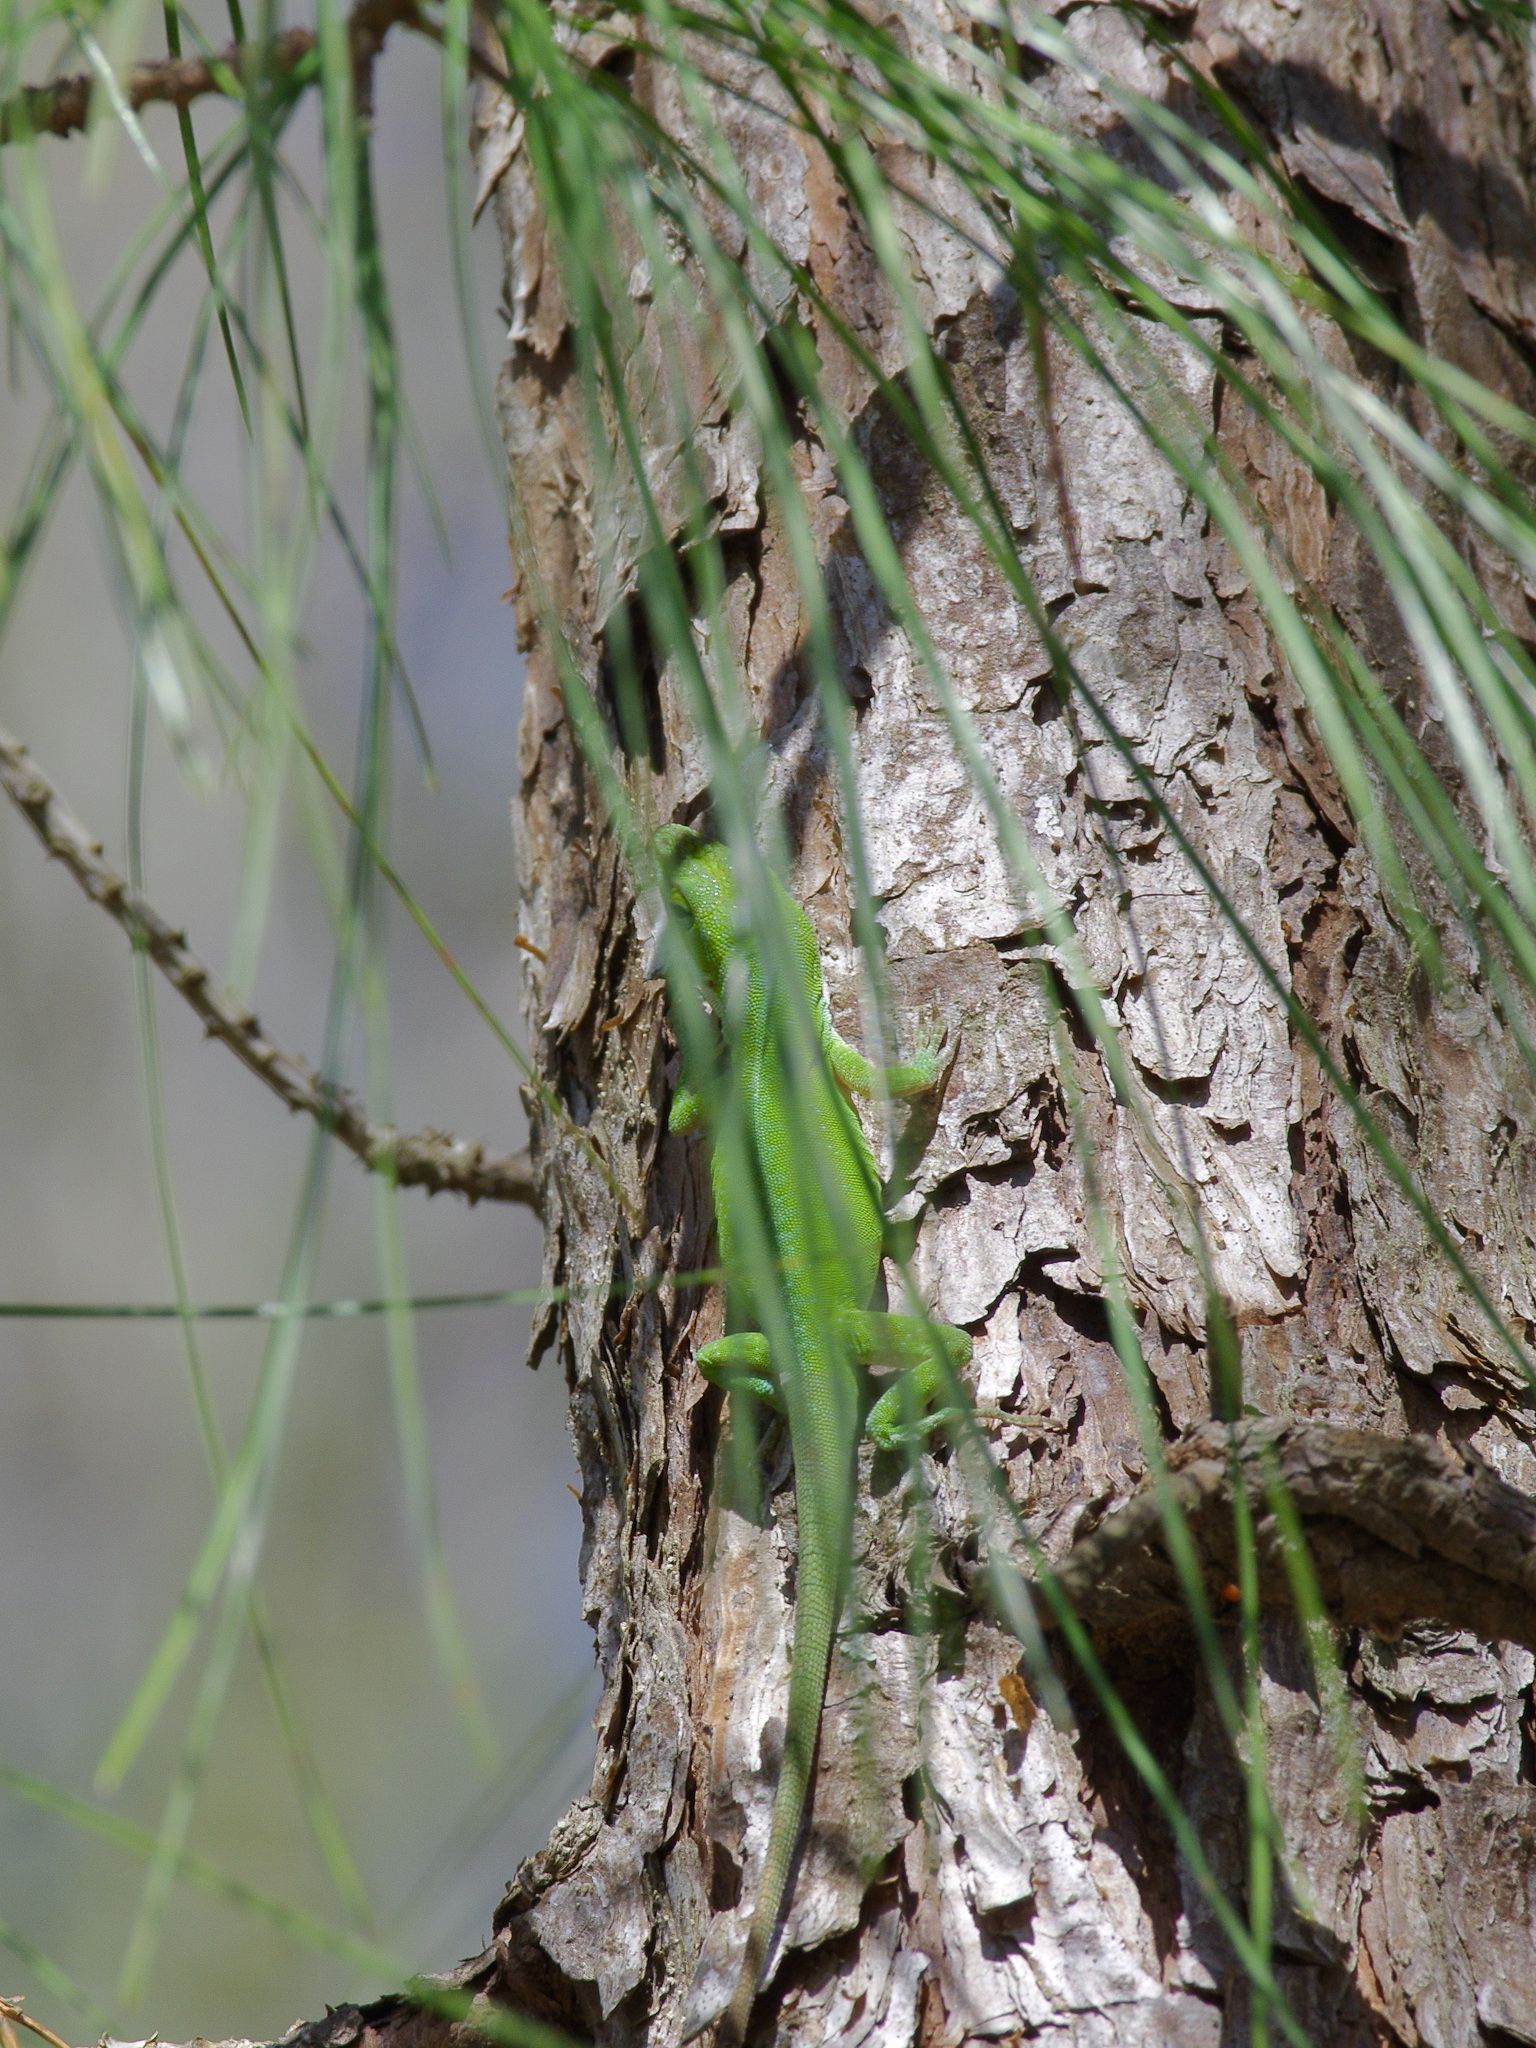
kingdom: Animalia
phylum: Chordata
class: Squamata
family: Dactyloidae
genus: Anolis
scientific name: Anolis carolinensis
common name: Green anole
